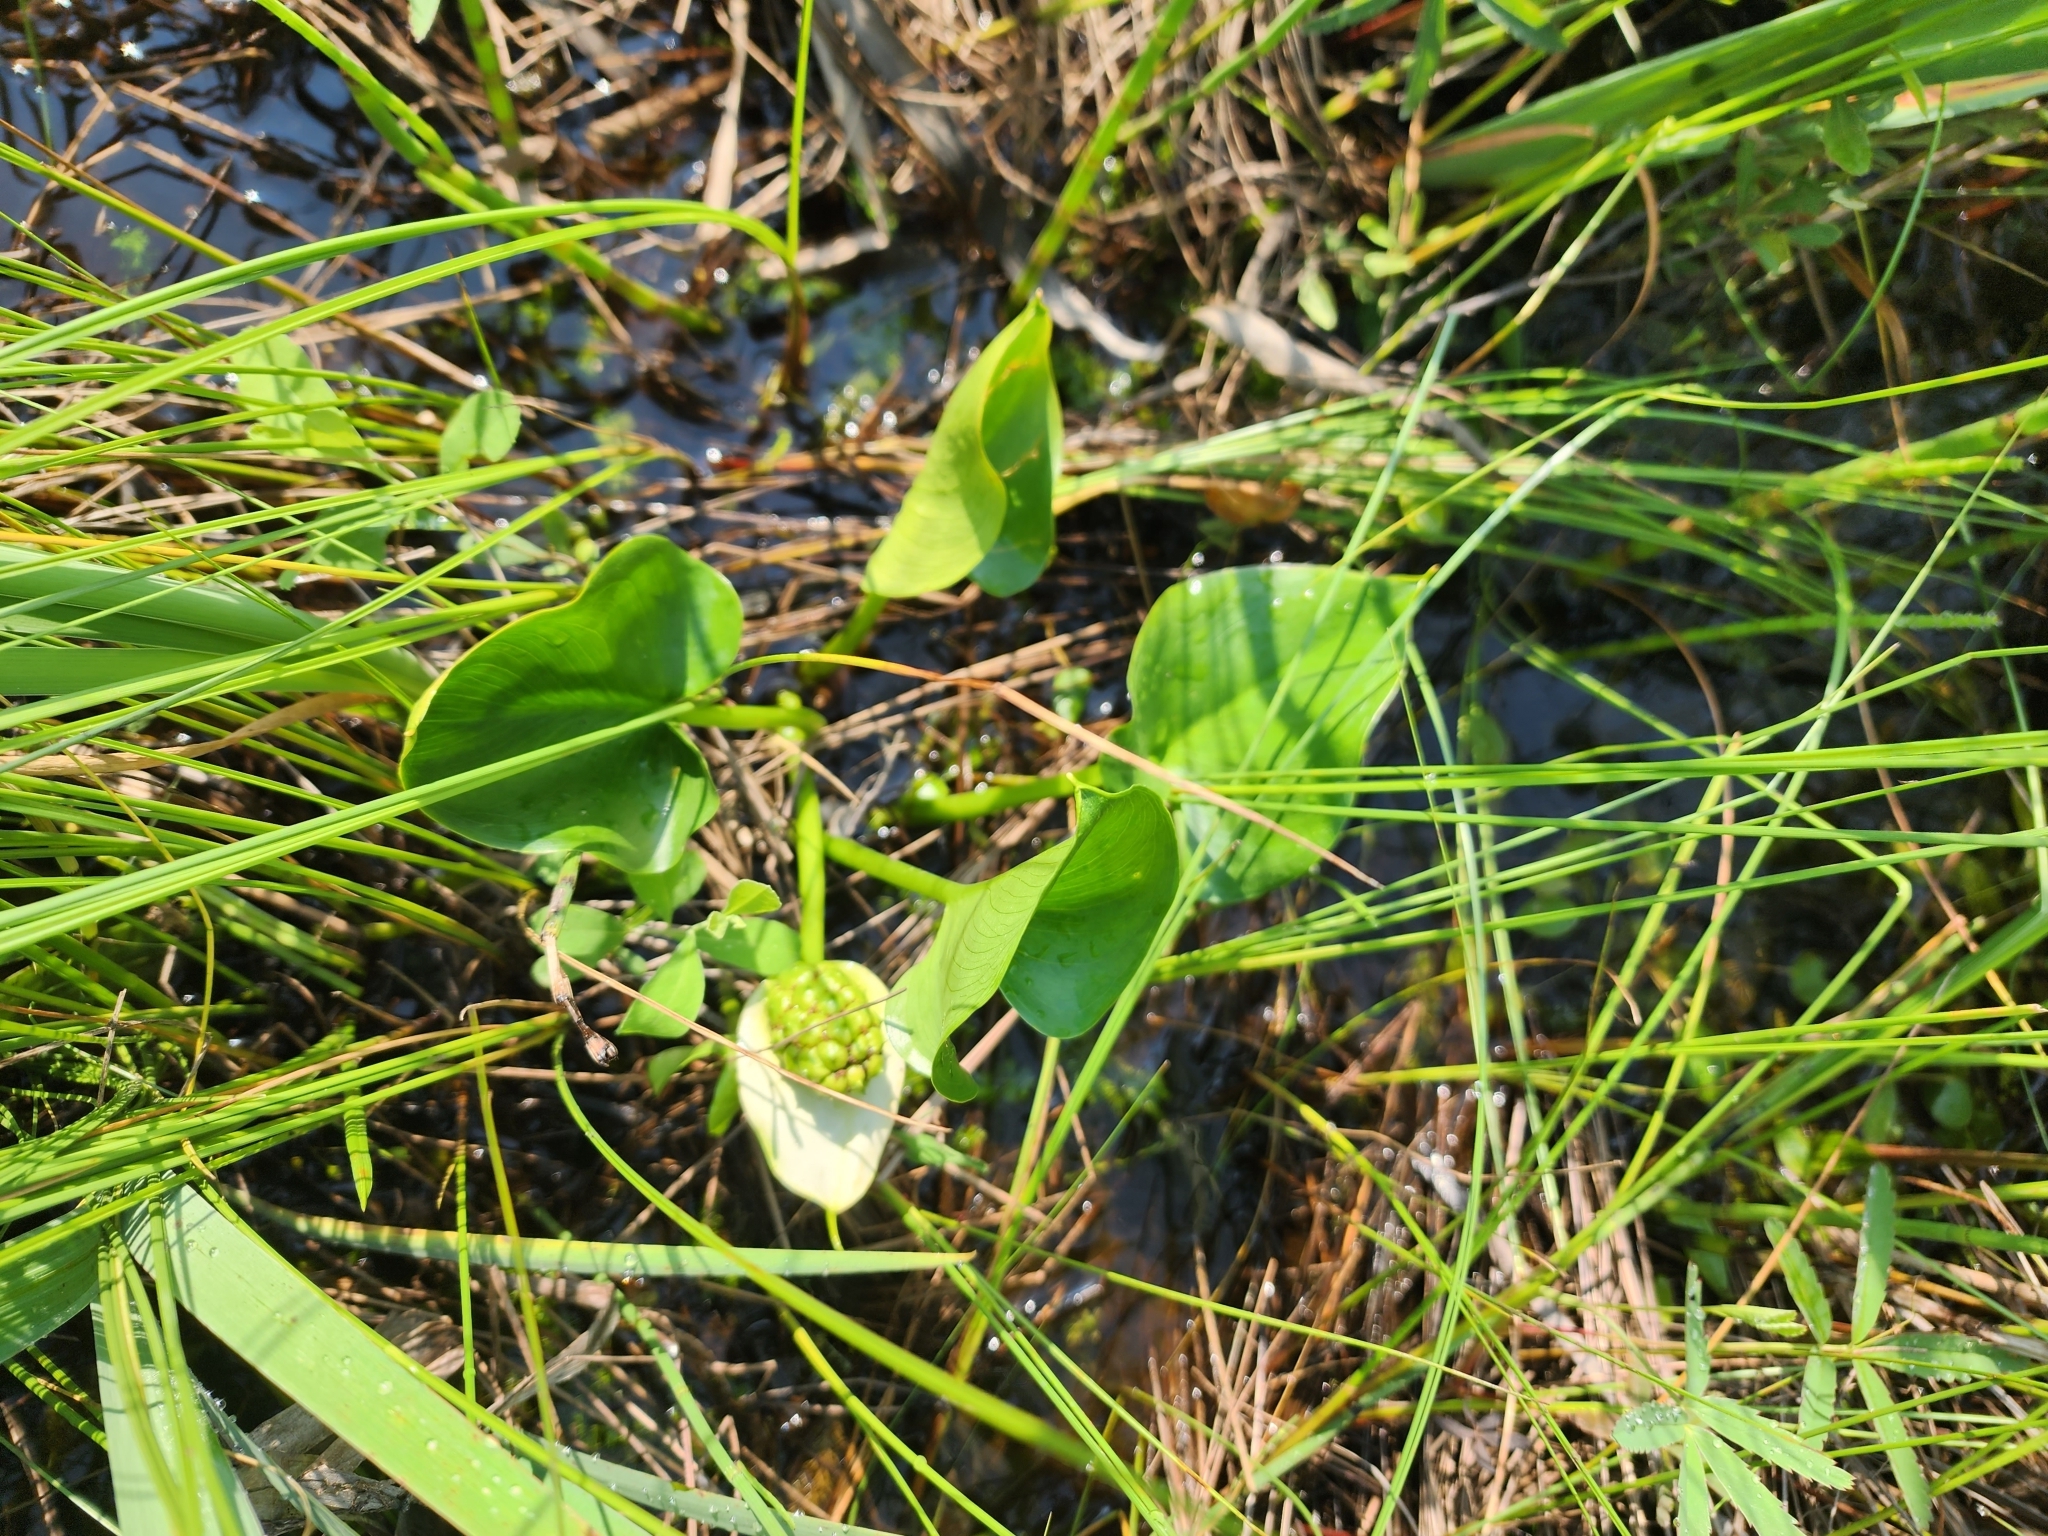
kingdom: Plantae
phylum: Tracheophyta
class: Liliopsida
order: Alismatales
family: Araceae
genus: Calla
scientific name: Calla palustris
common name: Bog arum
